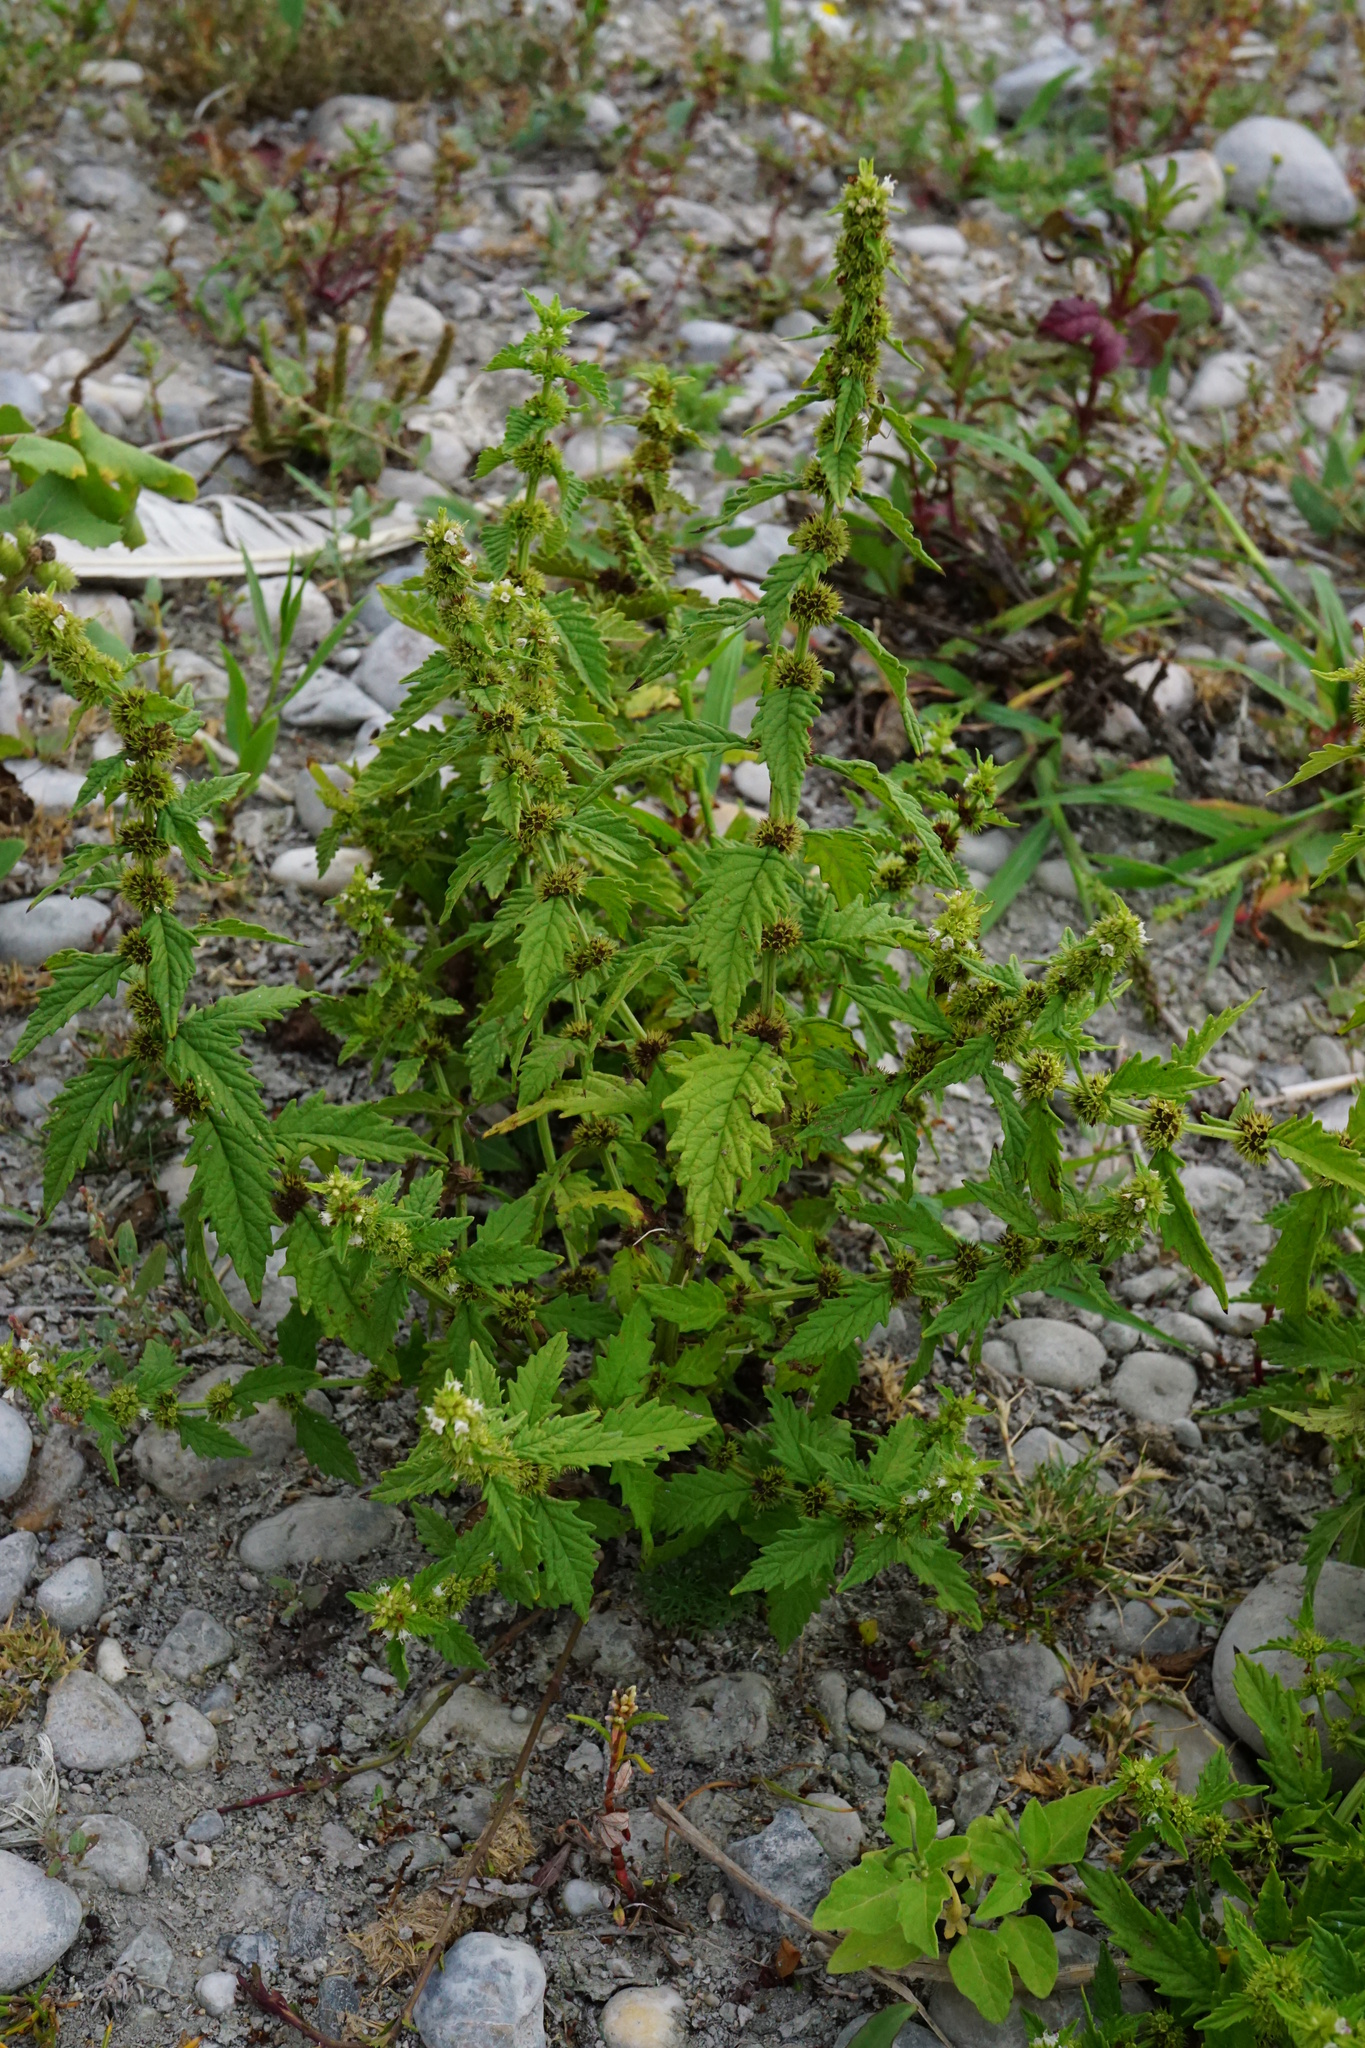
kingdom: Plantae
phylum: Tracheophyta
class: Magnoliopsida
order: Lamiales
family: Lamiaceae
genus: Lycopus
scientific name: Lycopus europaeus
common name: European bugleweed
